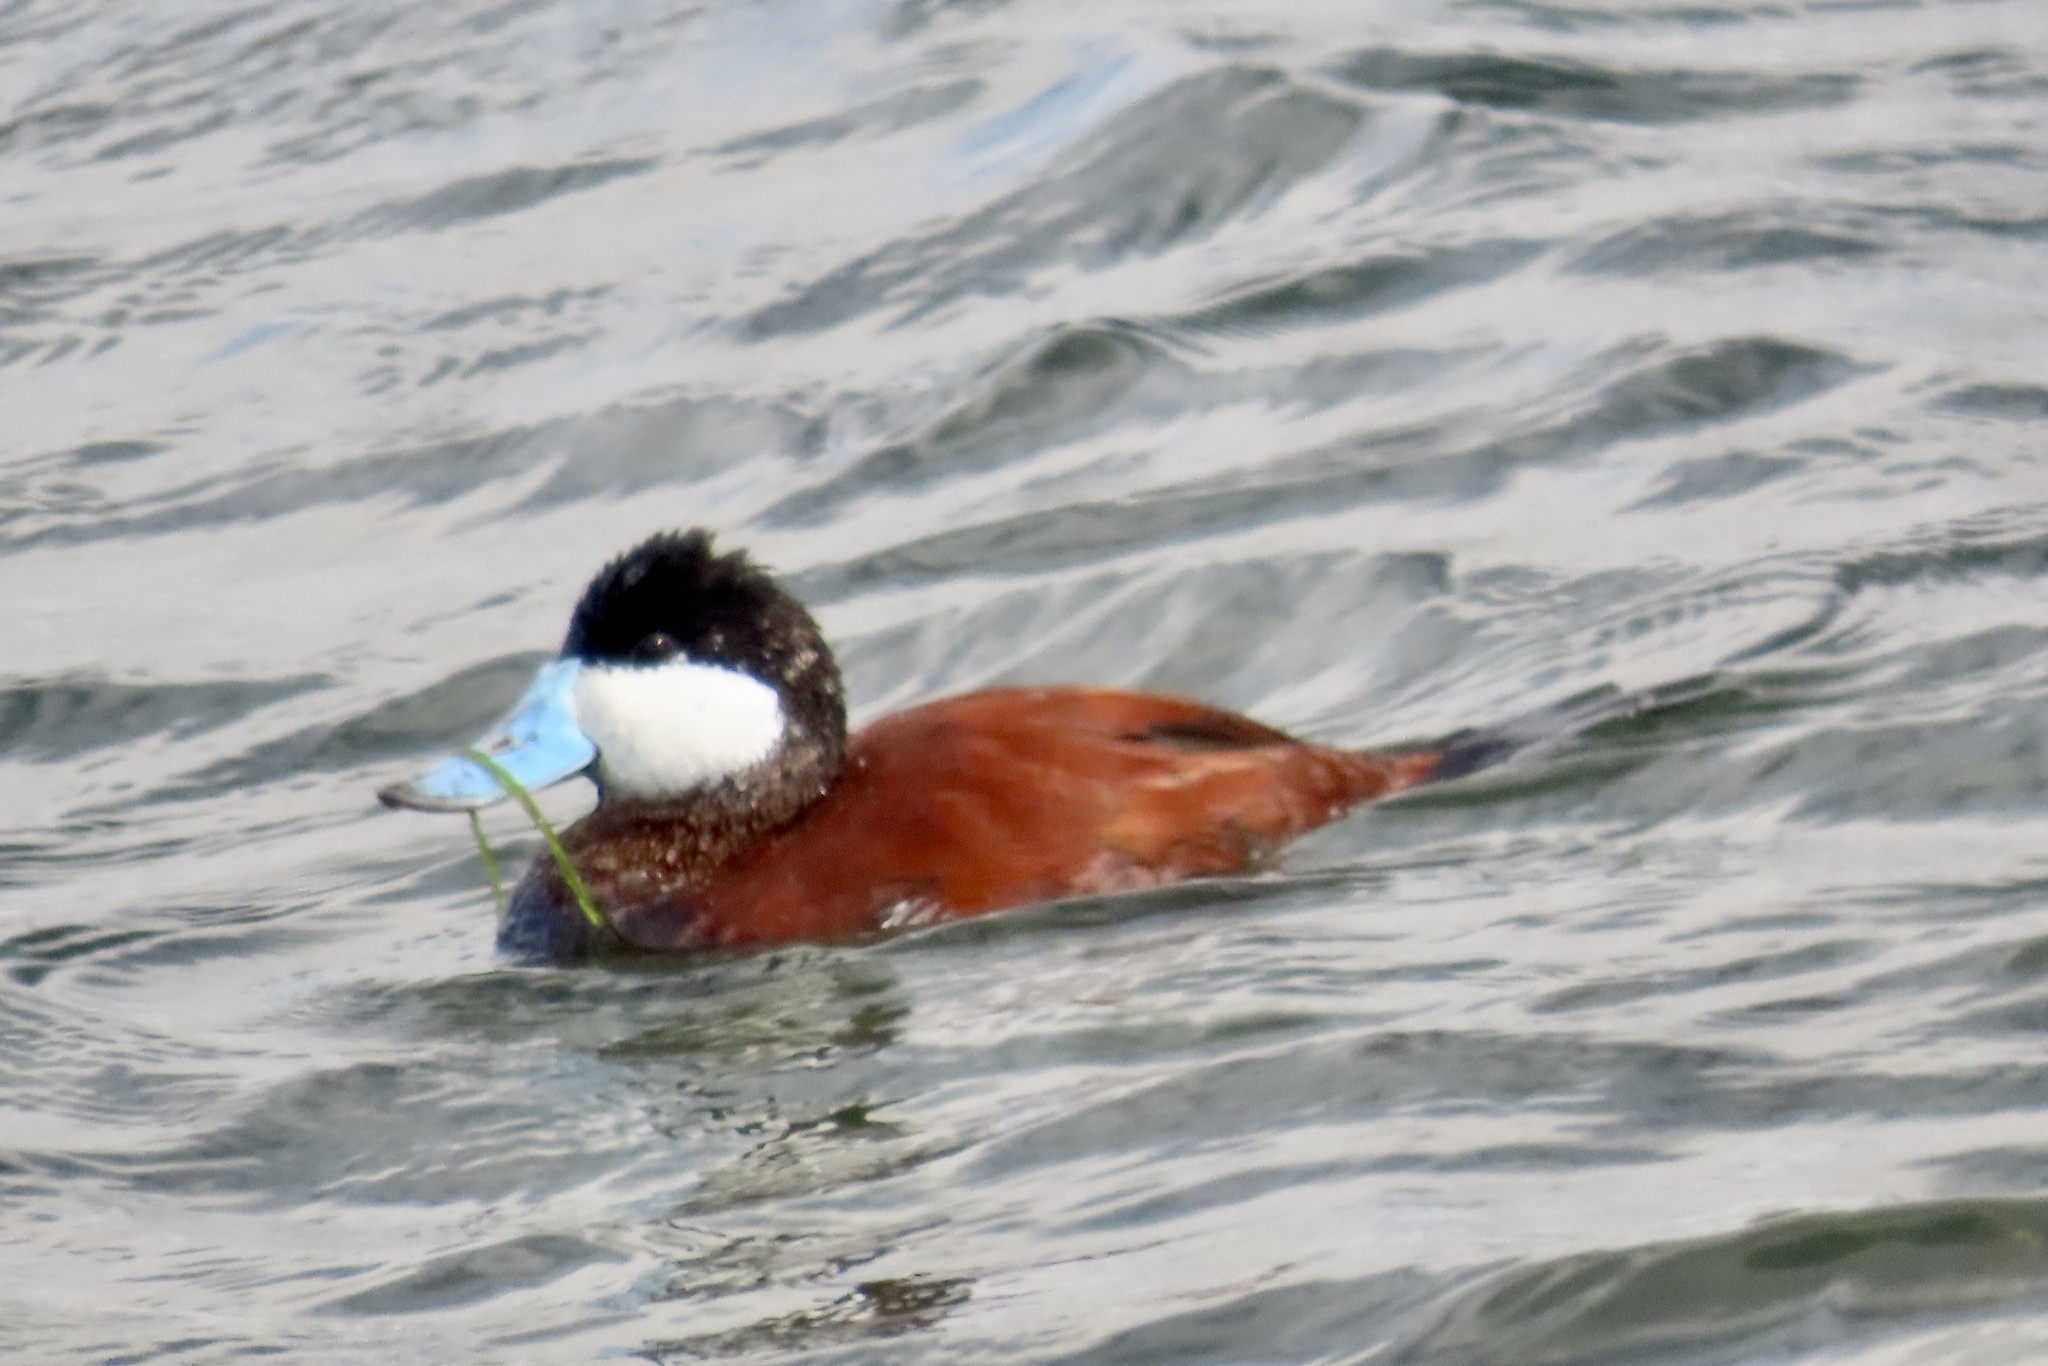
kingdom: Animalia
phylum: Chordata
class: Aves
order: Anseriformes
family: Anatidae
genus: Oxyura
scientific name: Oxyura jamaicensis
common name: Ruddy duck
